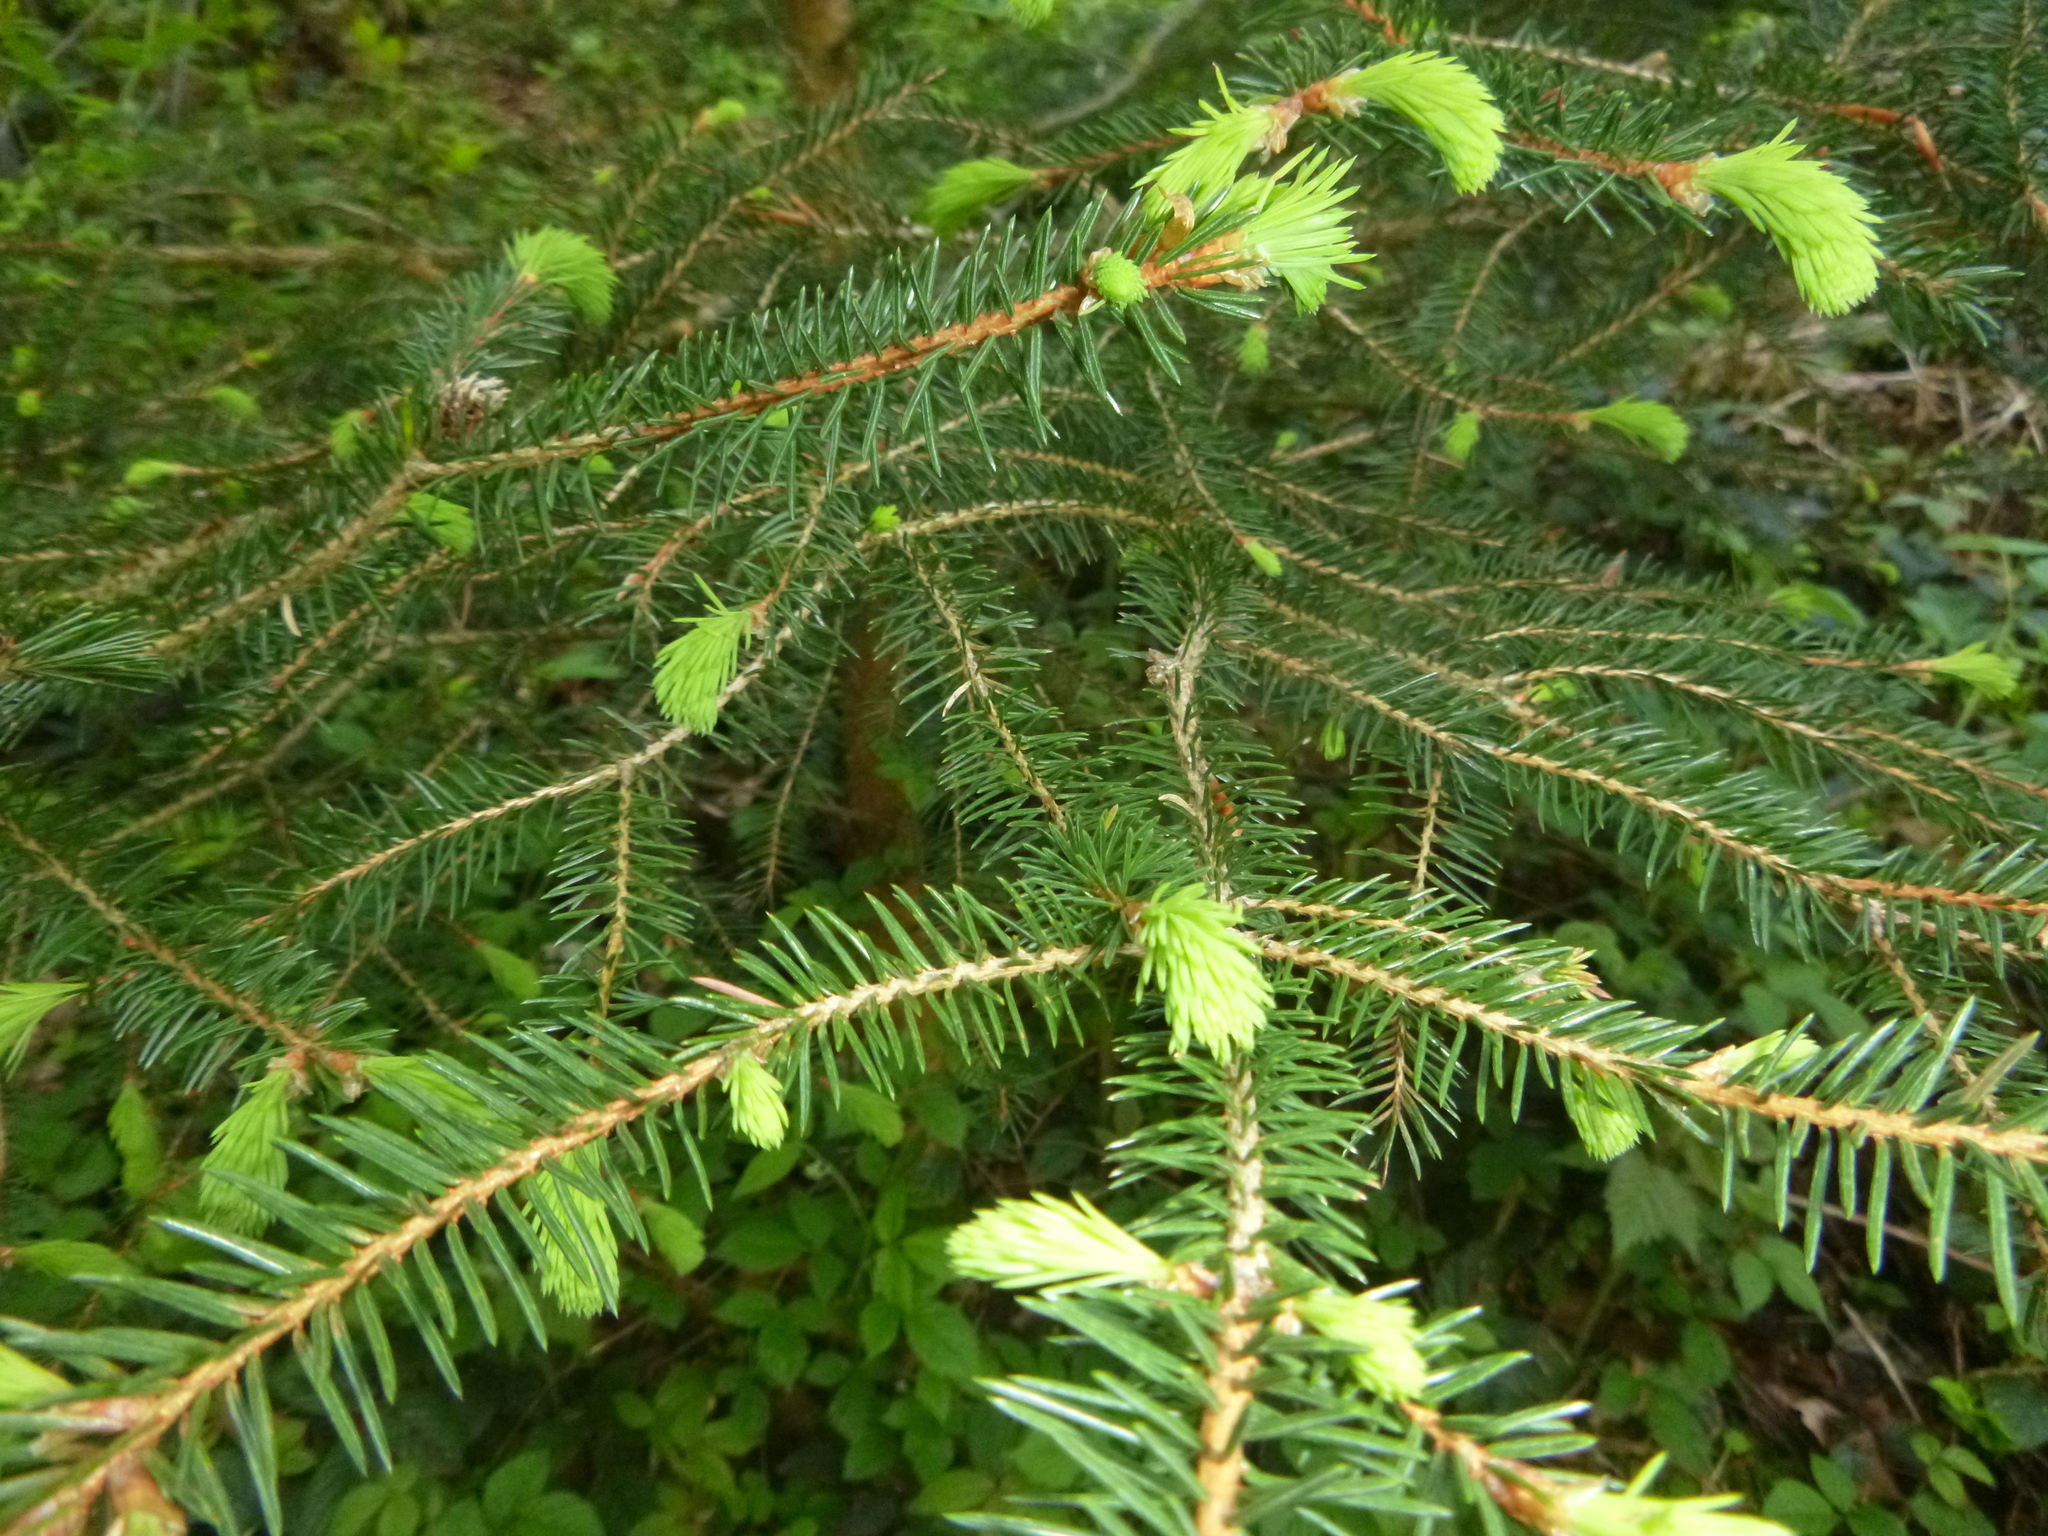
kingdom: Plantae
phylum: Tracheophyta
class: Pinopsida
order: Pinales
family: Pinaceae
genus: Picea
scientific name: Picea abies
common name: Norway spruce
